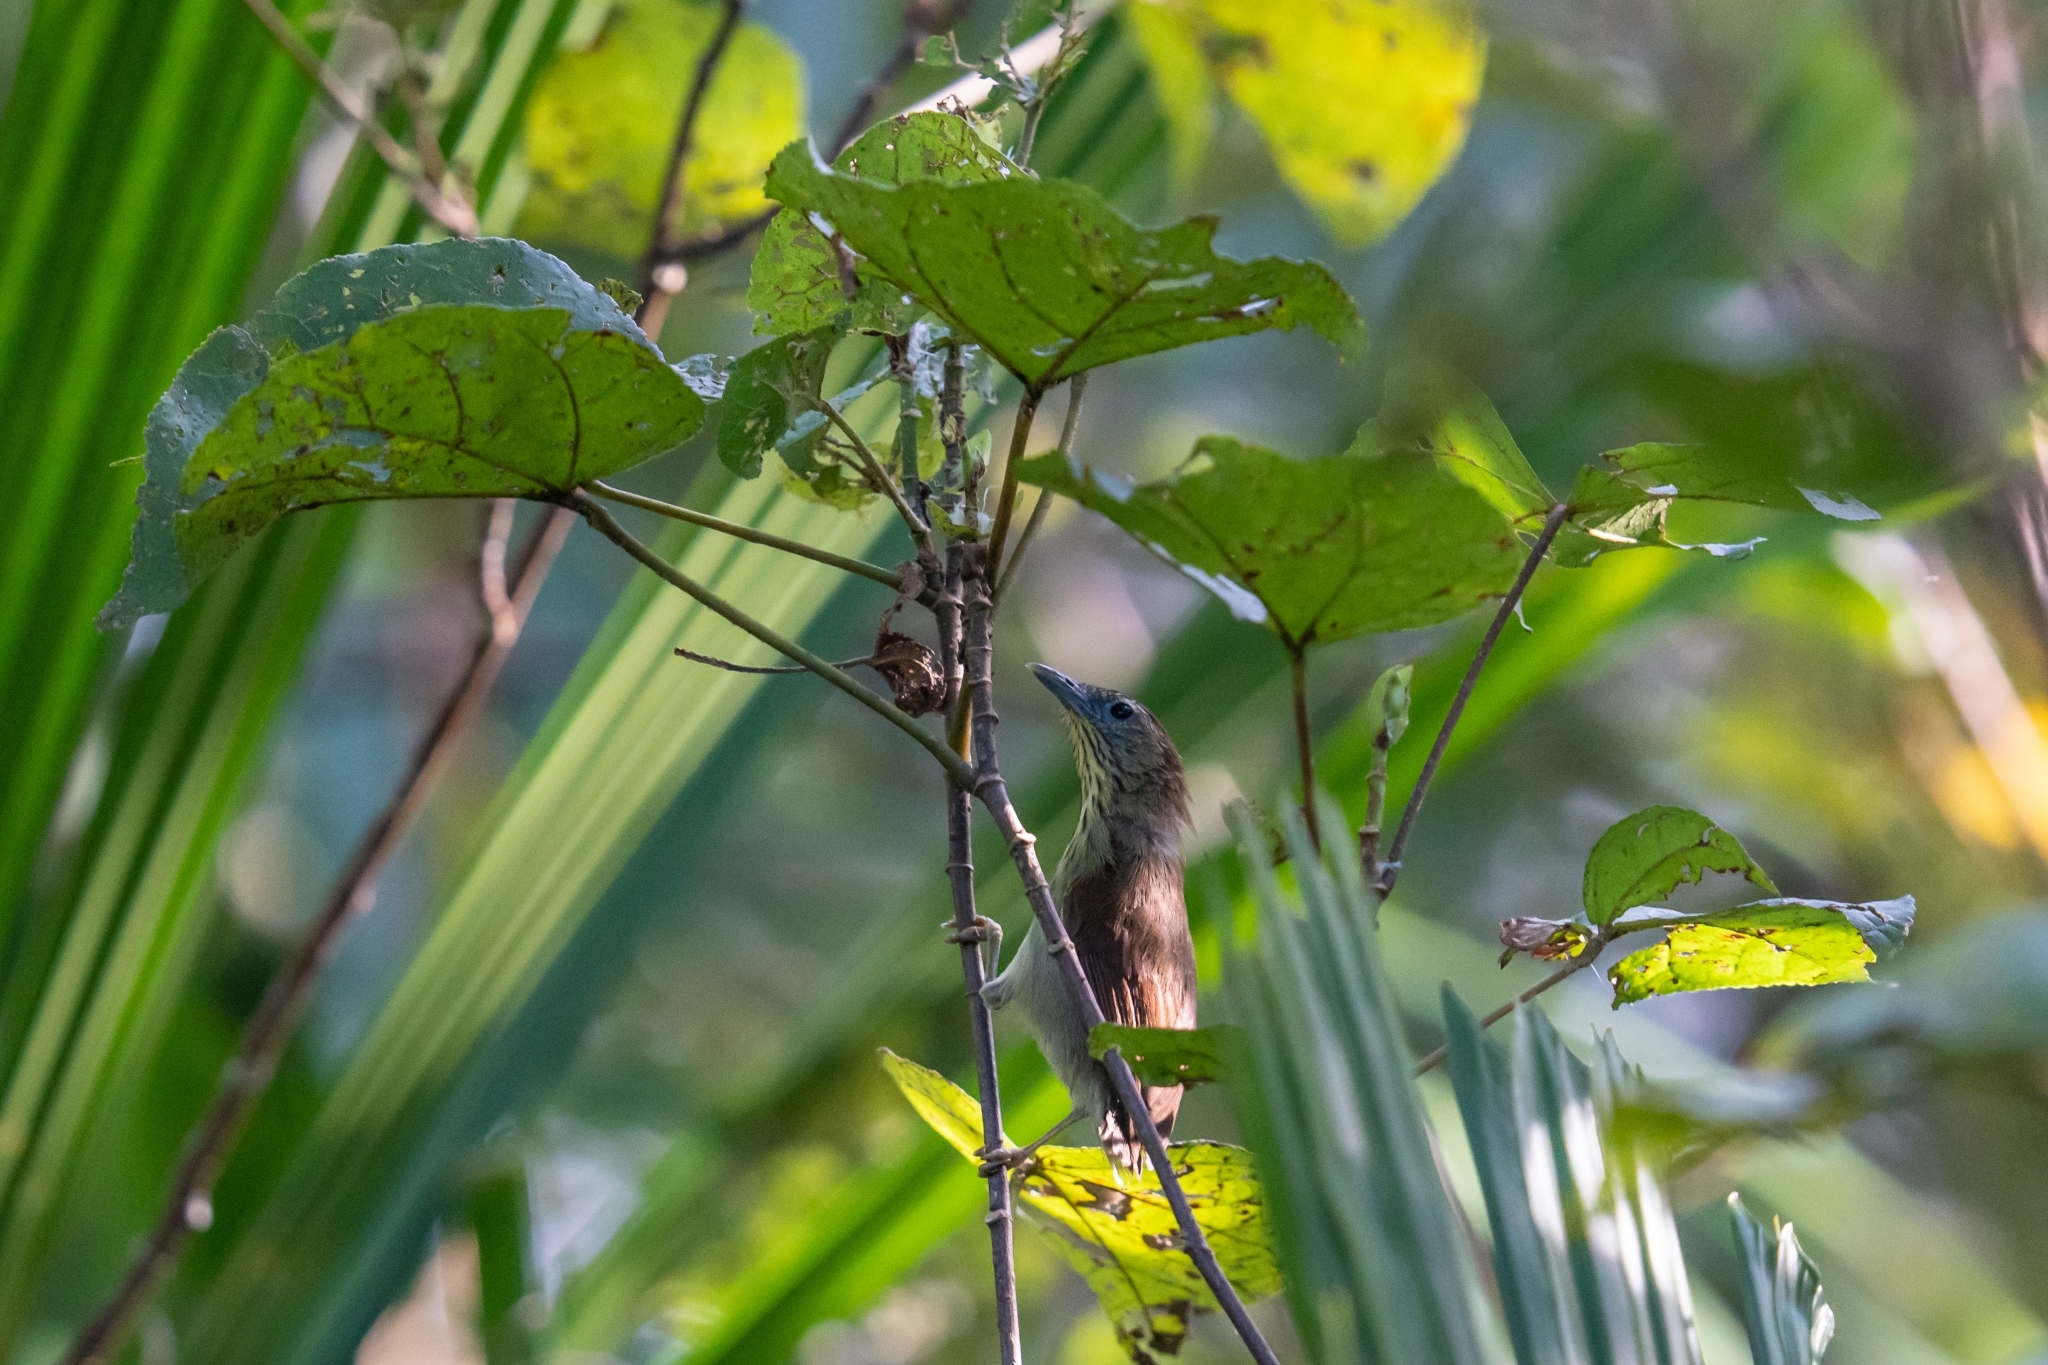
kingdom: Animalia
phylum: Chordata
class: Aves
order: Passeriformes
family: Timaliidae
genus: Macronus
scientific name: Macronus gularis
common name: Striped tit-babbler
